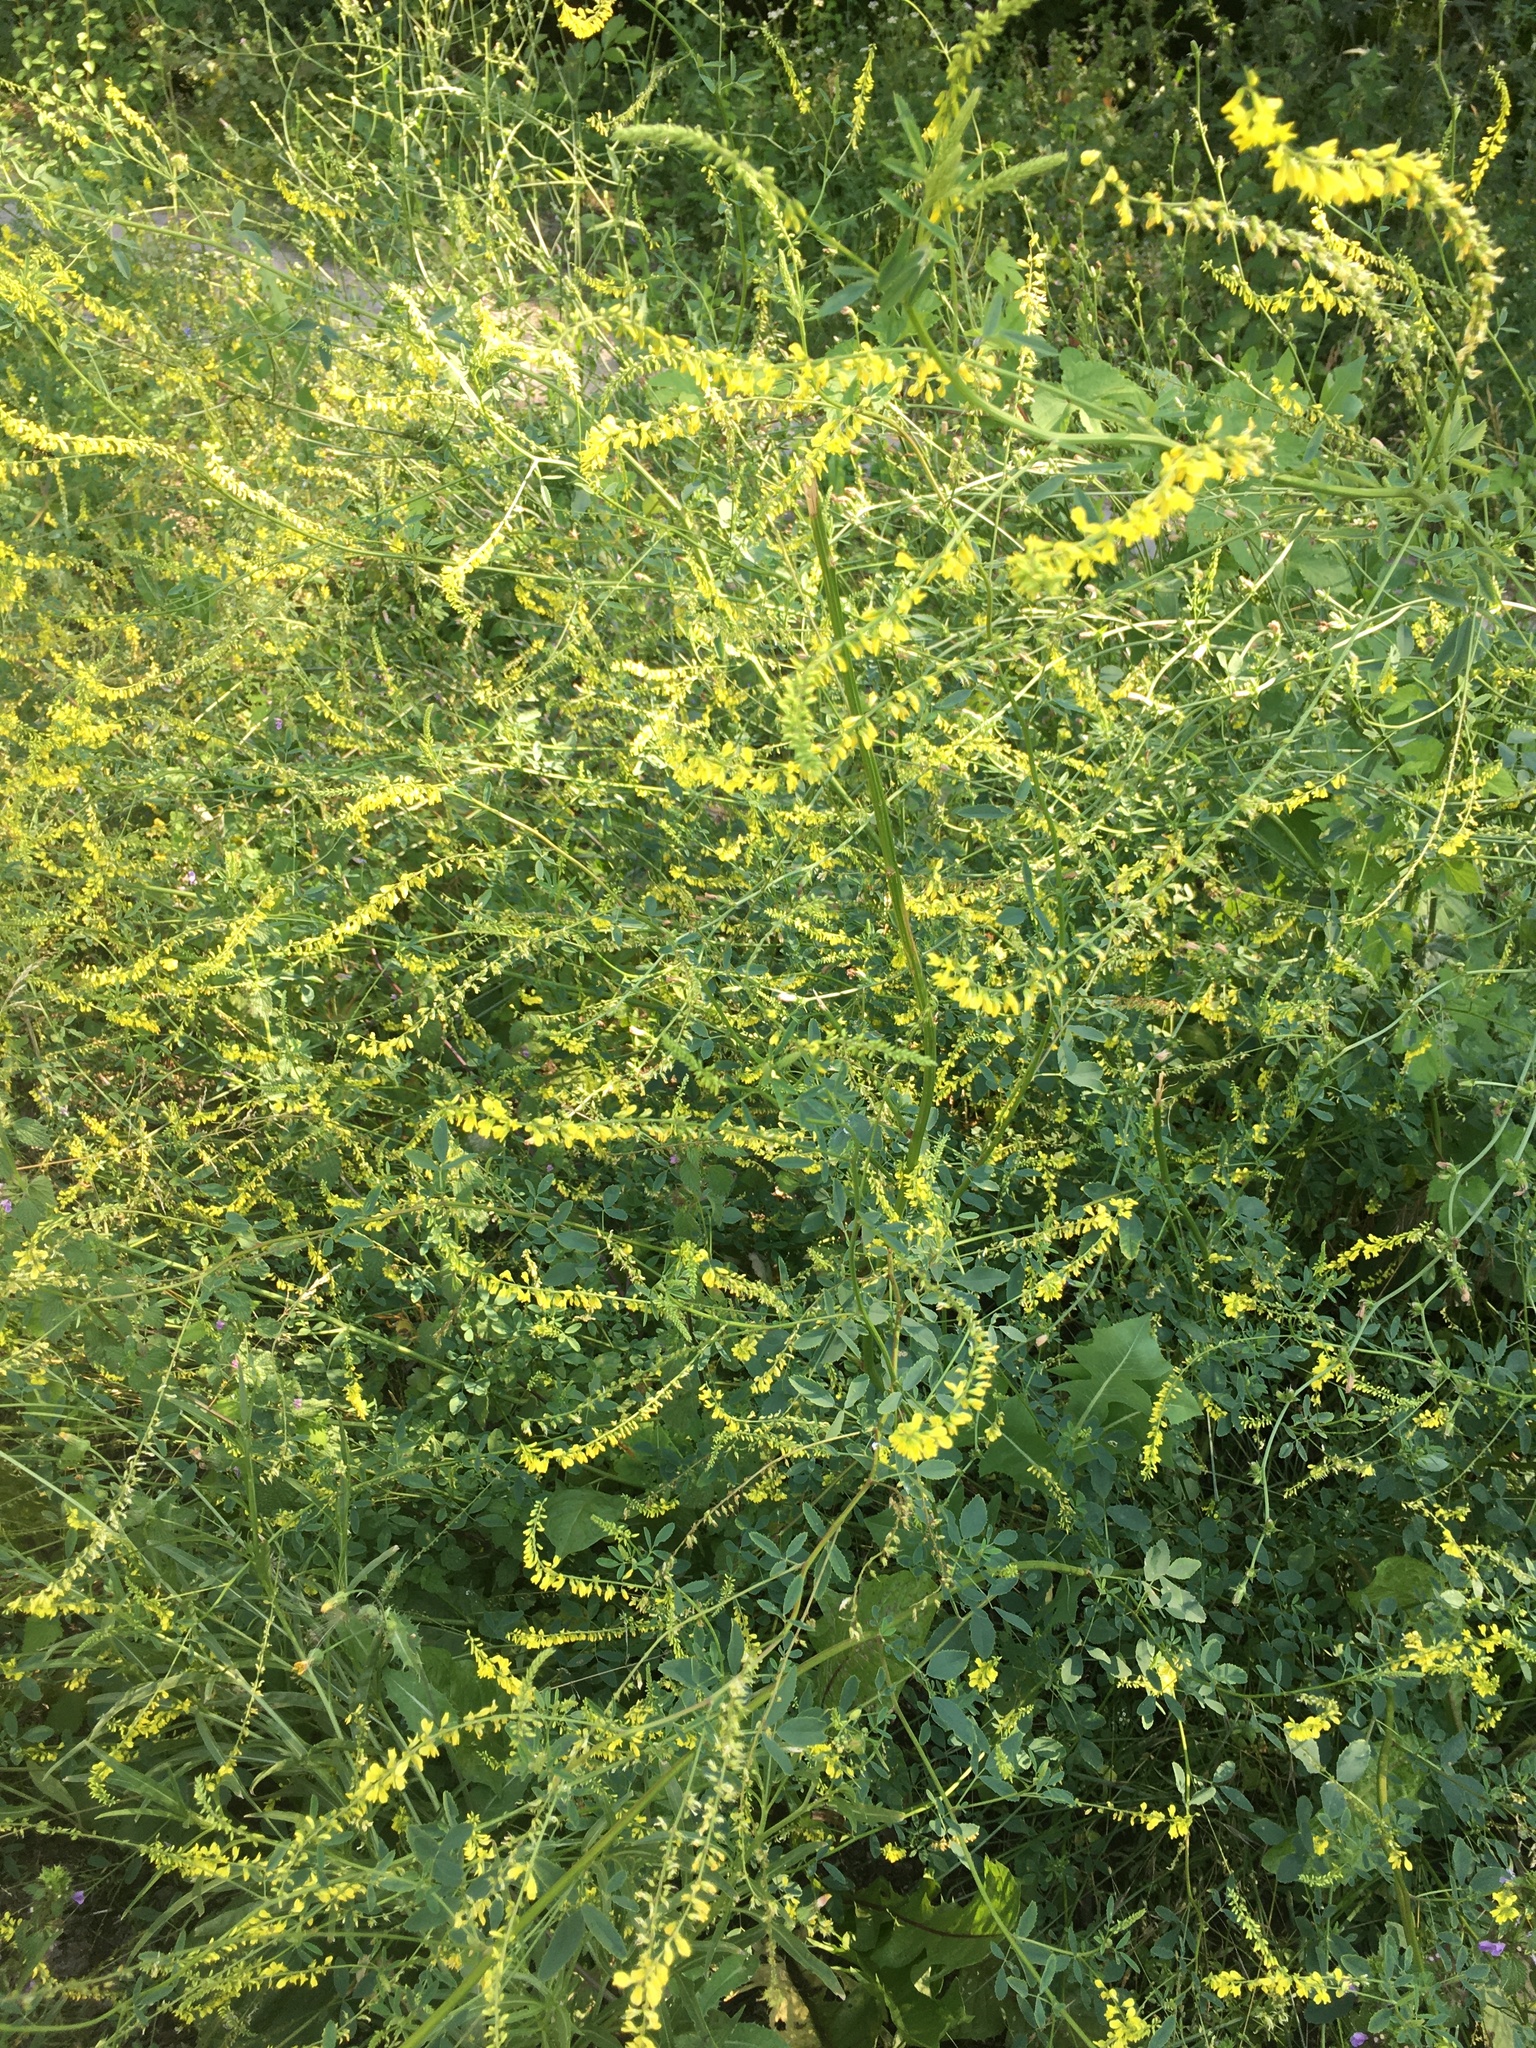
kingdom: Plantae
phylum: Tracheophyta
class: Magnoliopsida
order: Fabales
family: Fabaceae
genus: Melilotus
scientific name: Melilotus officinalis
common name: Sweetclover
